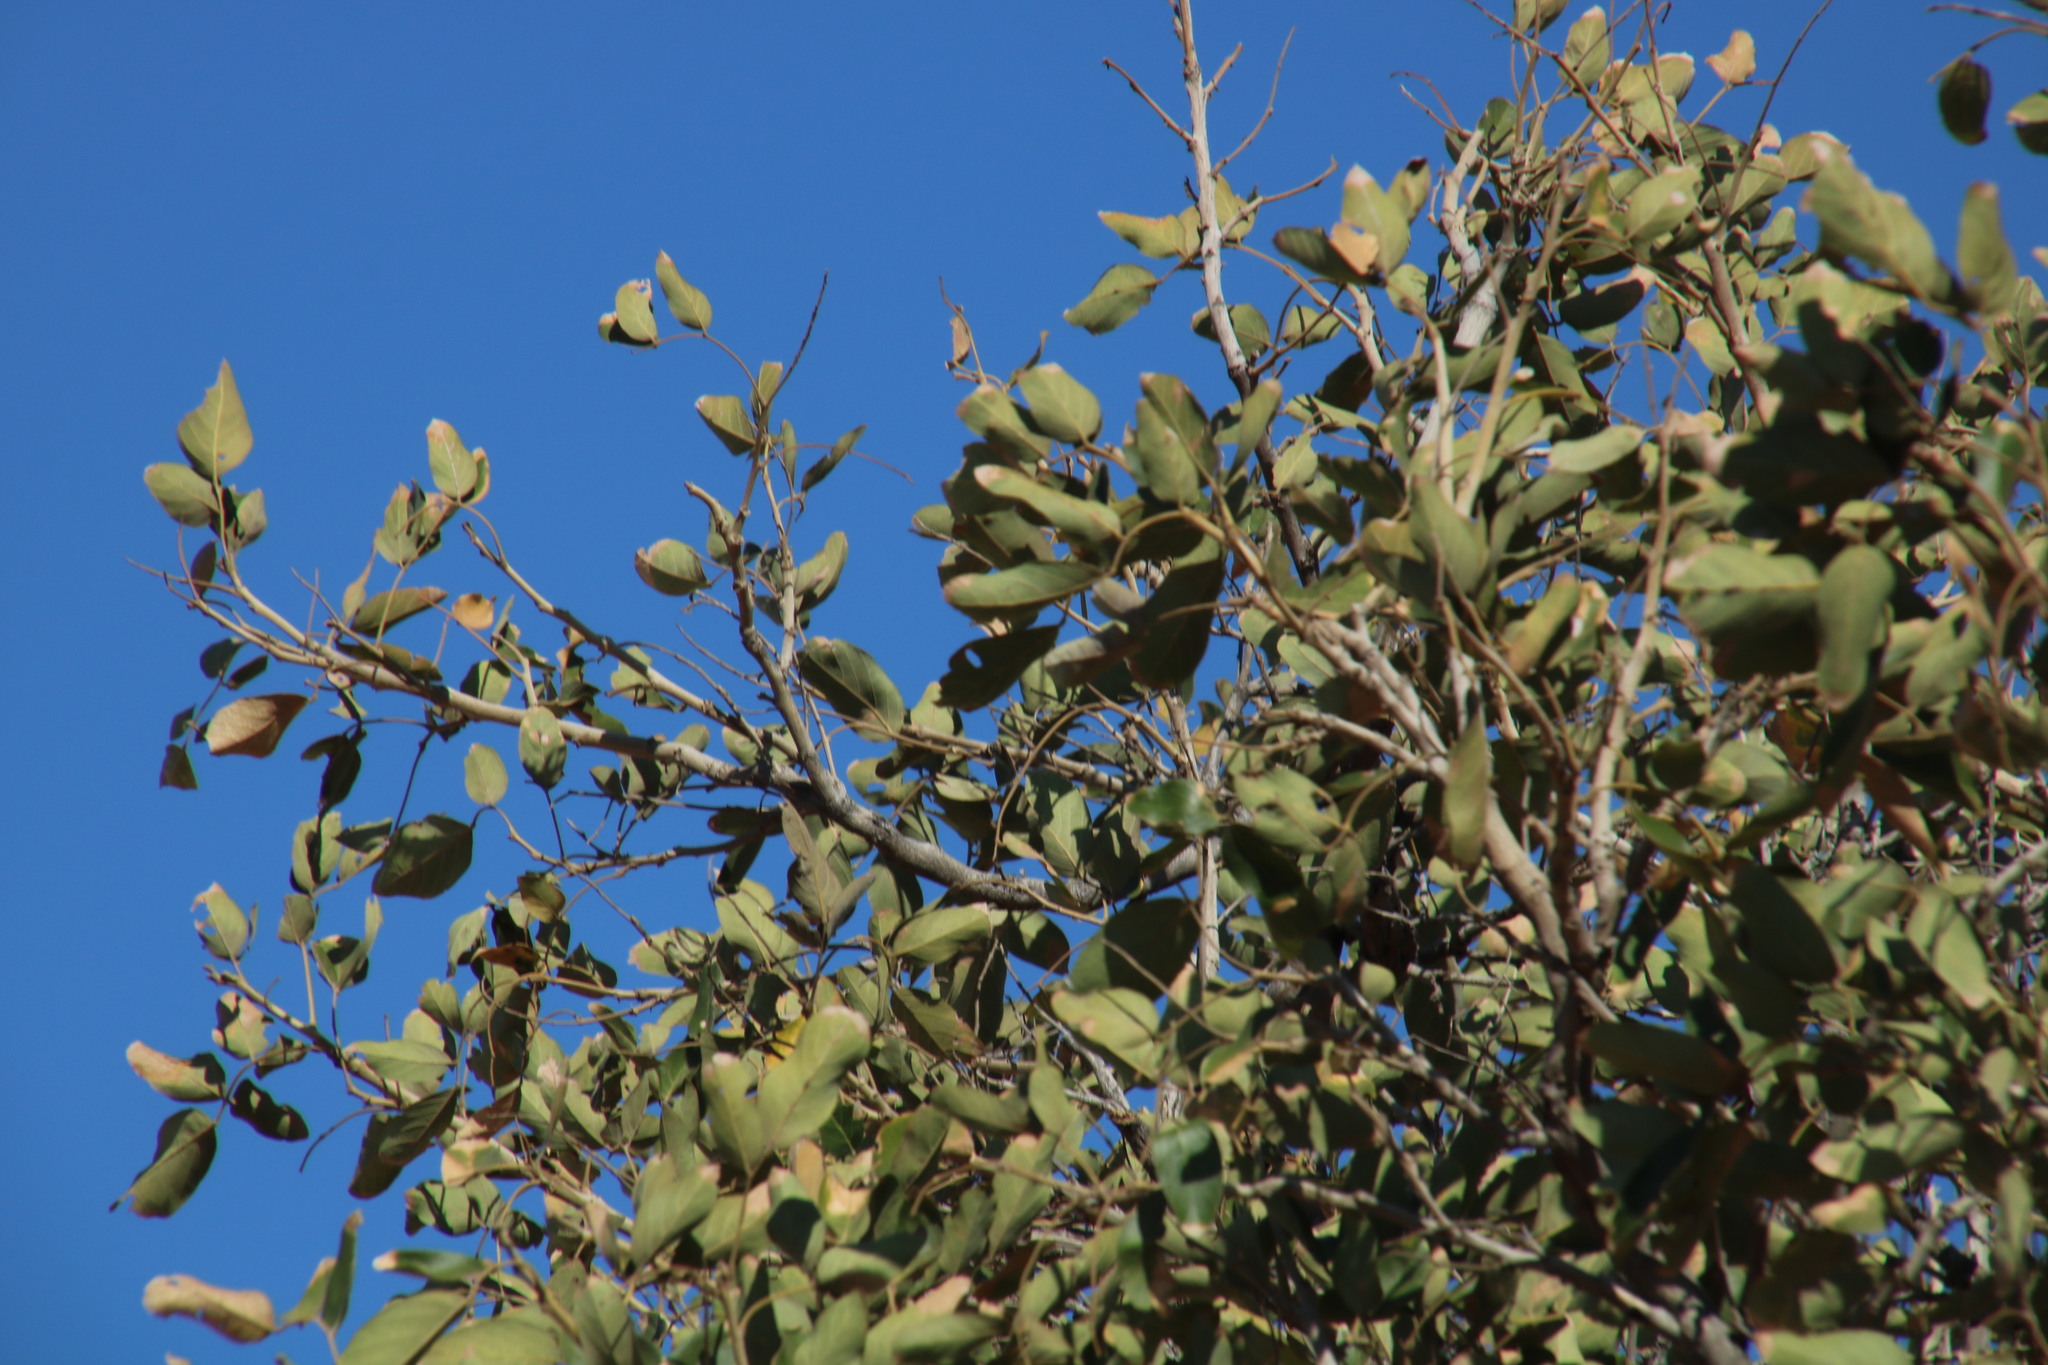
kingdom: Plantae
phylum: Tracheophyta
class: Magnoliopsida
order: Fabales
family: Fabaceae
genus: Philenoptera
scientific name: Philenoptera violacea
